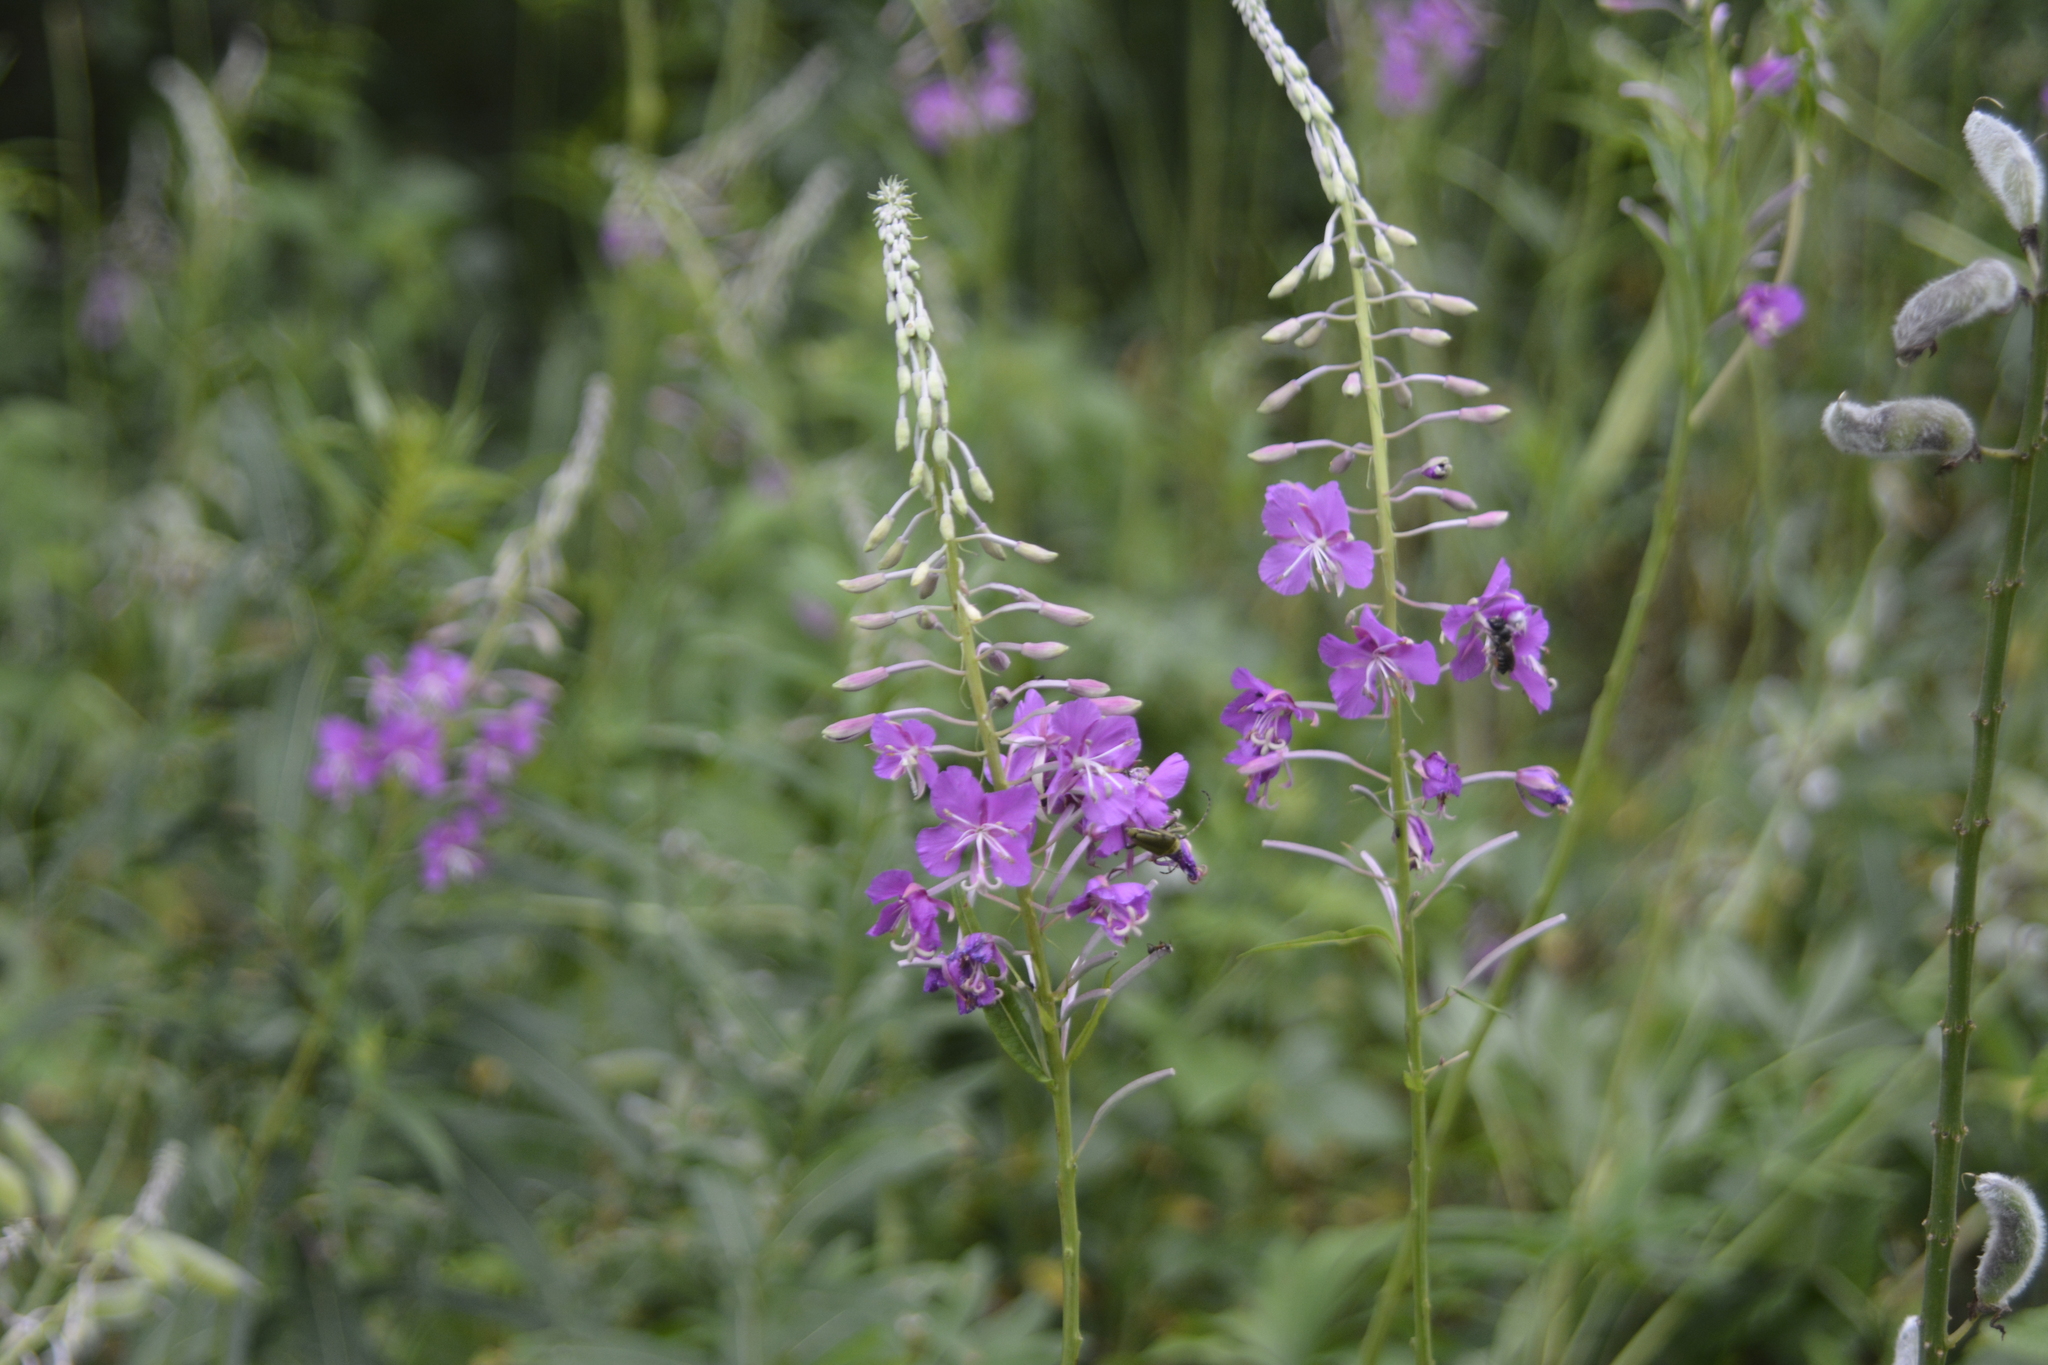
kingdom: Plantae
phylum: Tracheophyta
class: Magnoliopsida
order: Myrtales
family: Onagraceae
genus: Chamaenerion
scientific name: Chamaenerion angustifolium
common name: Fireweed
